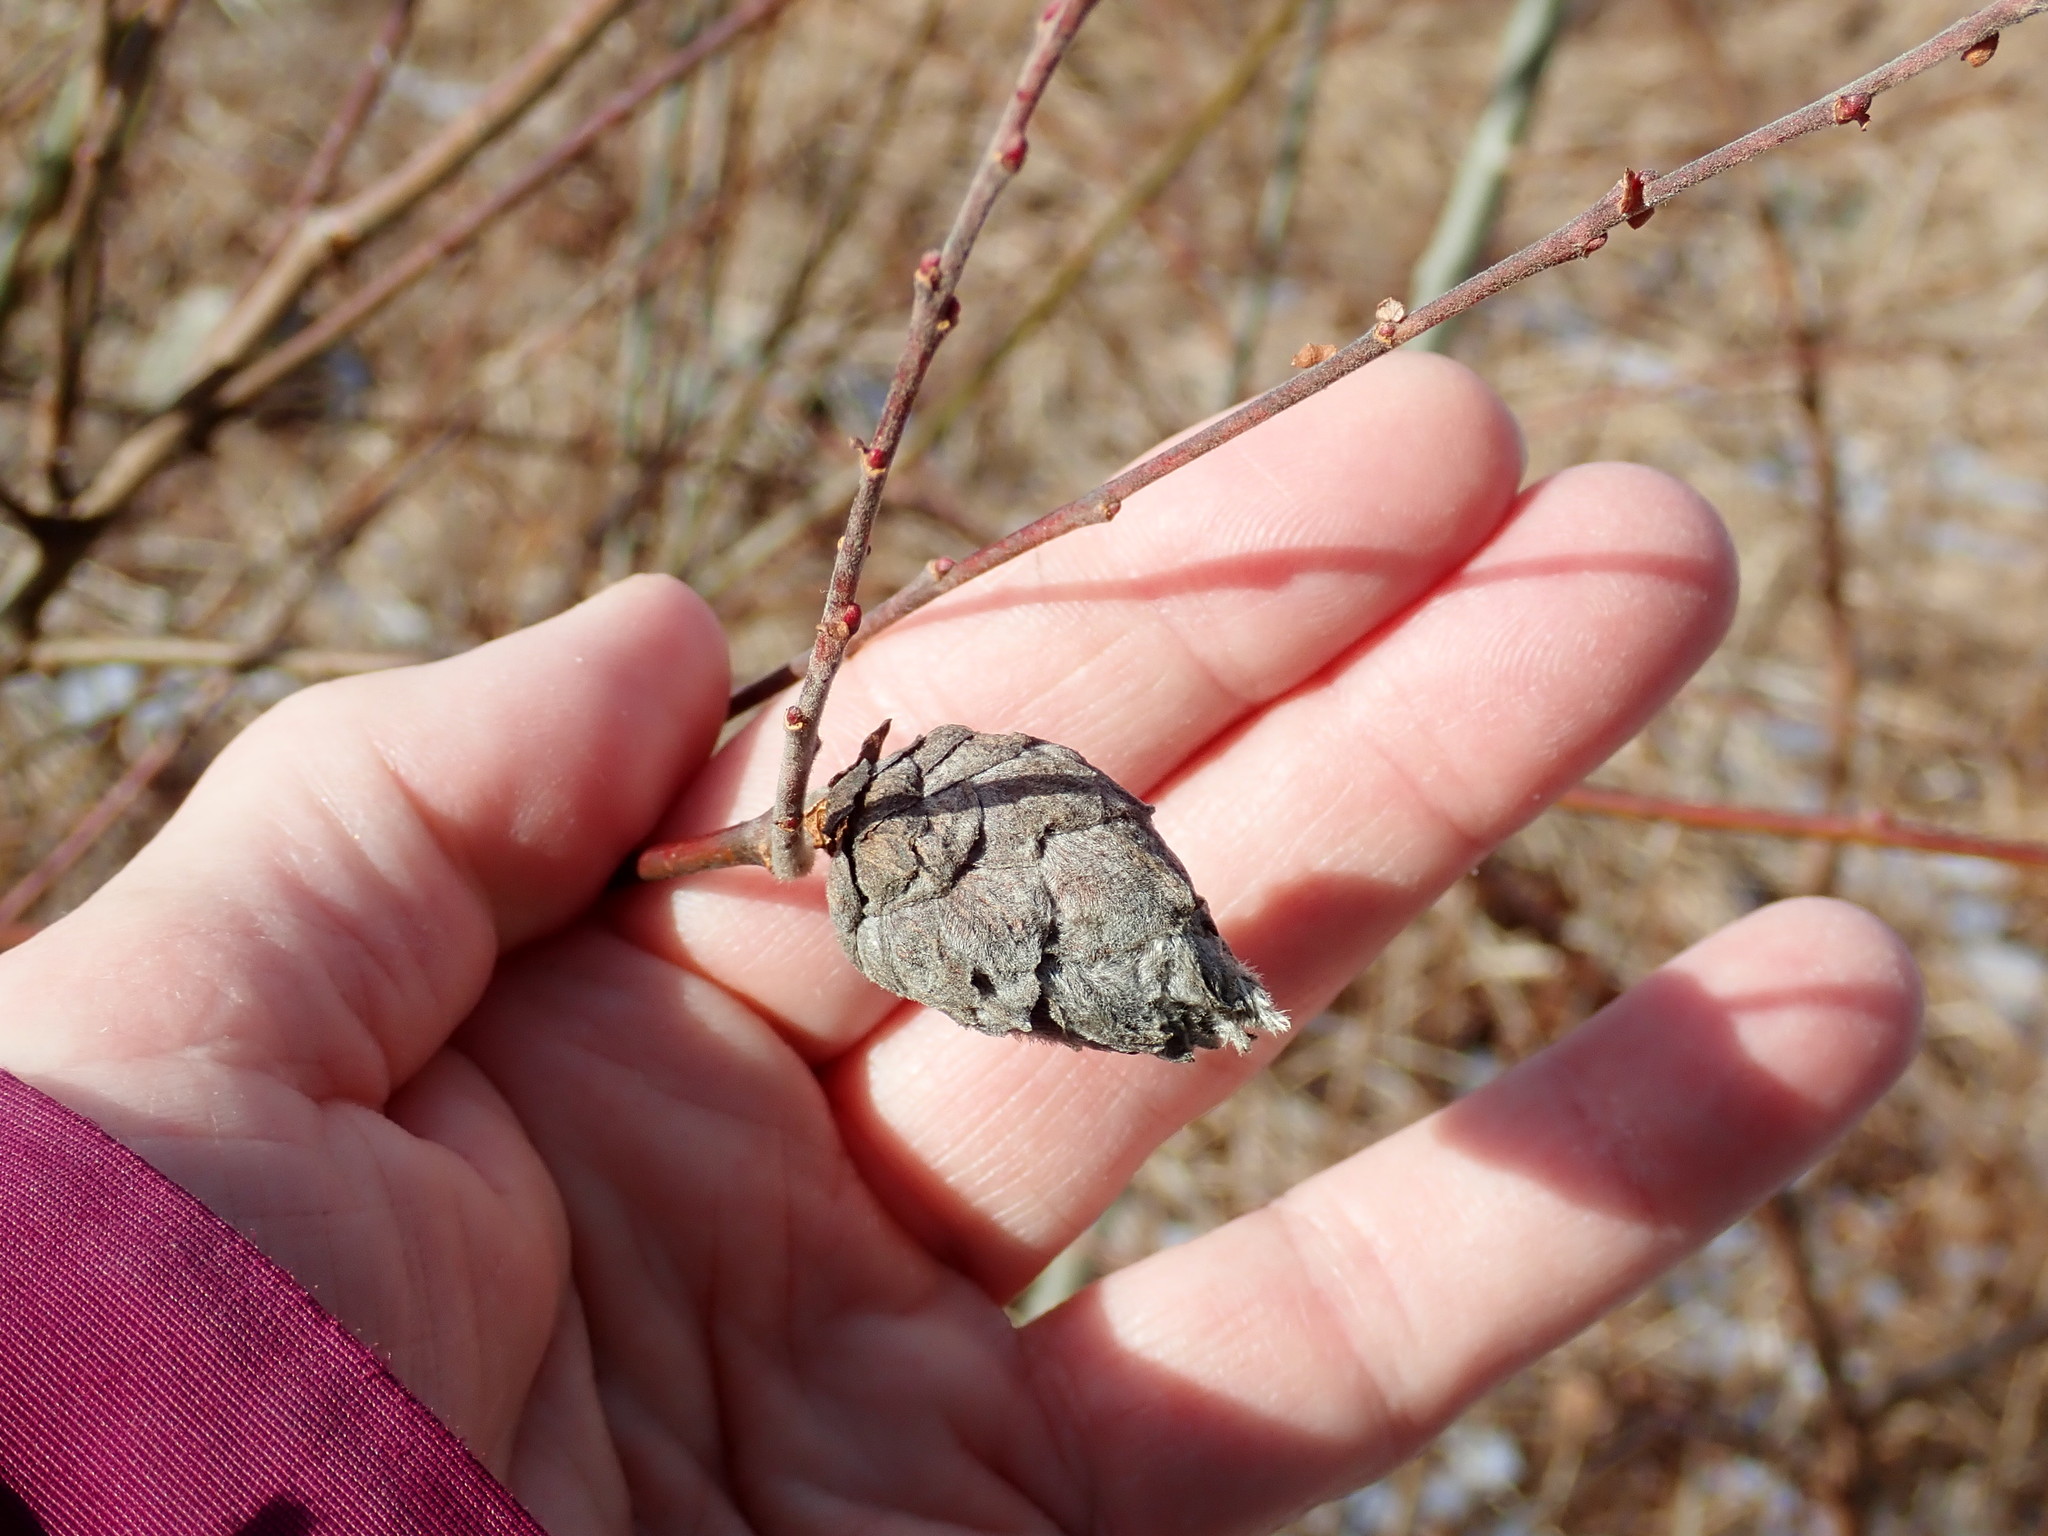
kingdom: Animalia
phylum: Arthropoda
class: Insecta
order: Diptera
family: Cecidomyiidae
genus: Rabdophaga
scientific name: Rabdophaga strobiloides
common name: Willow pinecone gall midge
